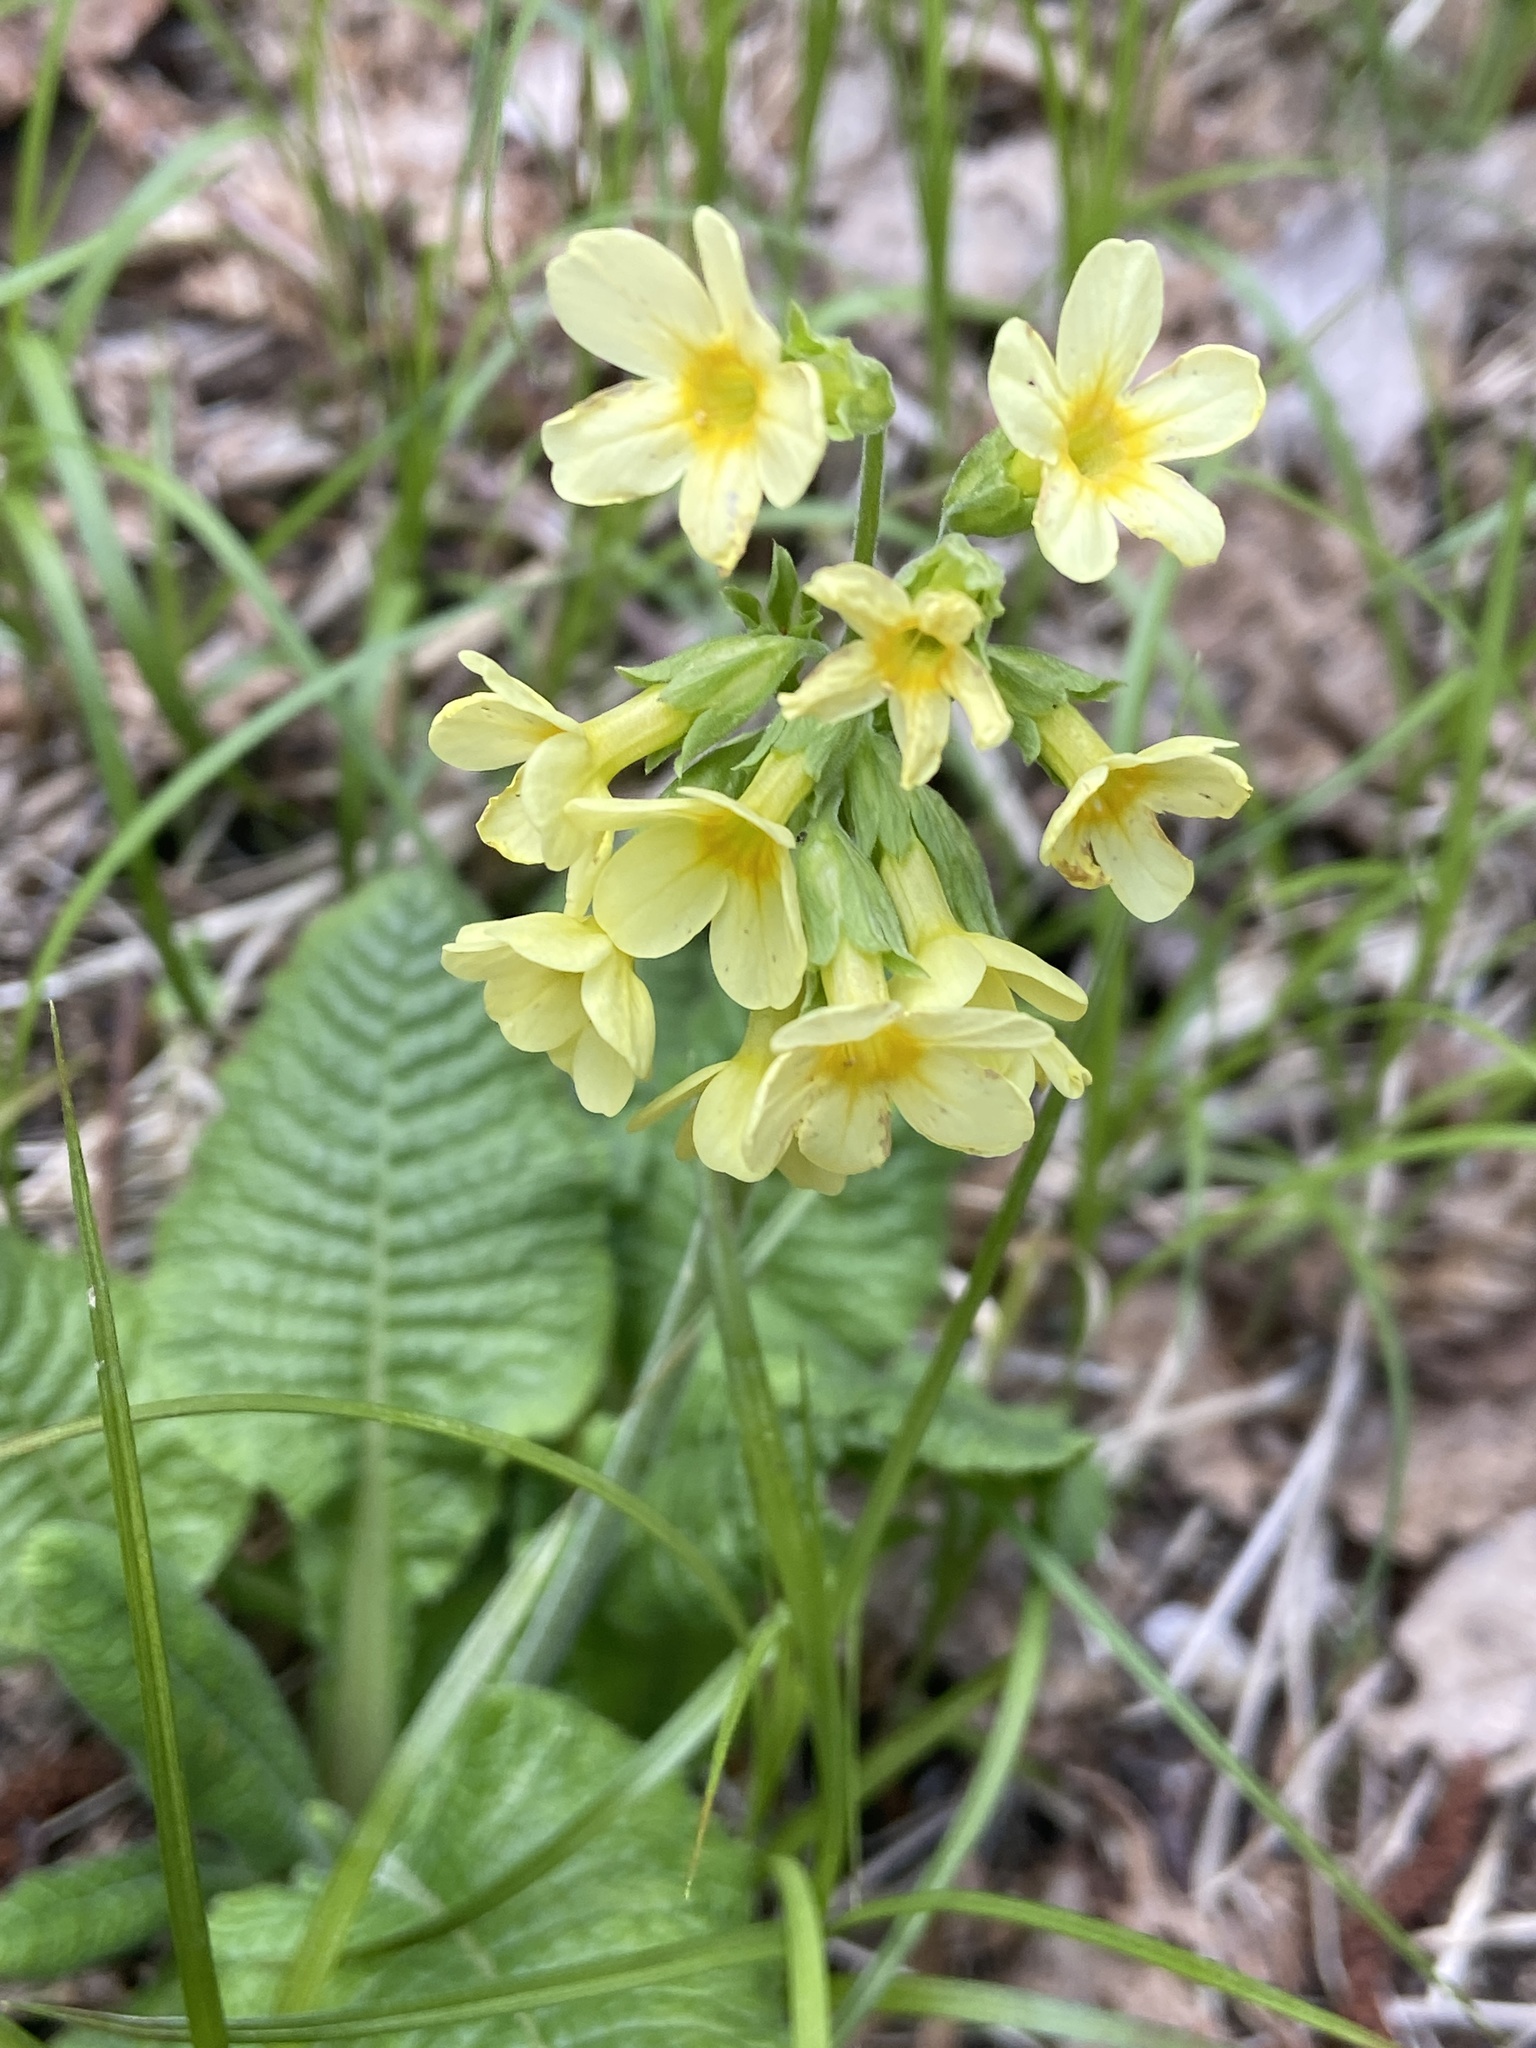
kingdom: Plantae
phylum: Tracheophyta
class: Magnoliopsida
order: Ericales
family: Primulaceae
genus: Primula
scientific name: Primula elatior
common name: Oxlip
